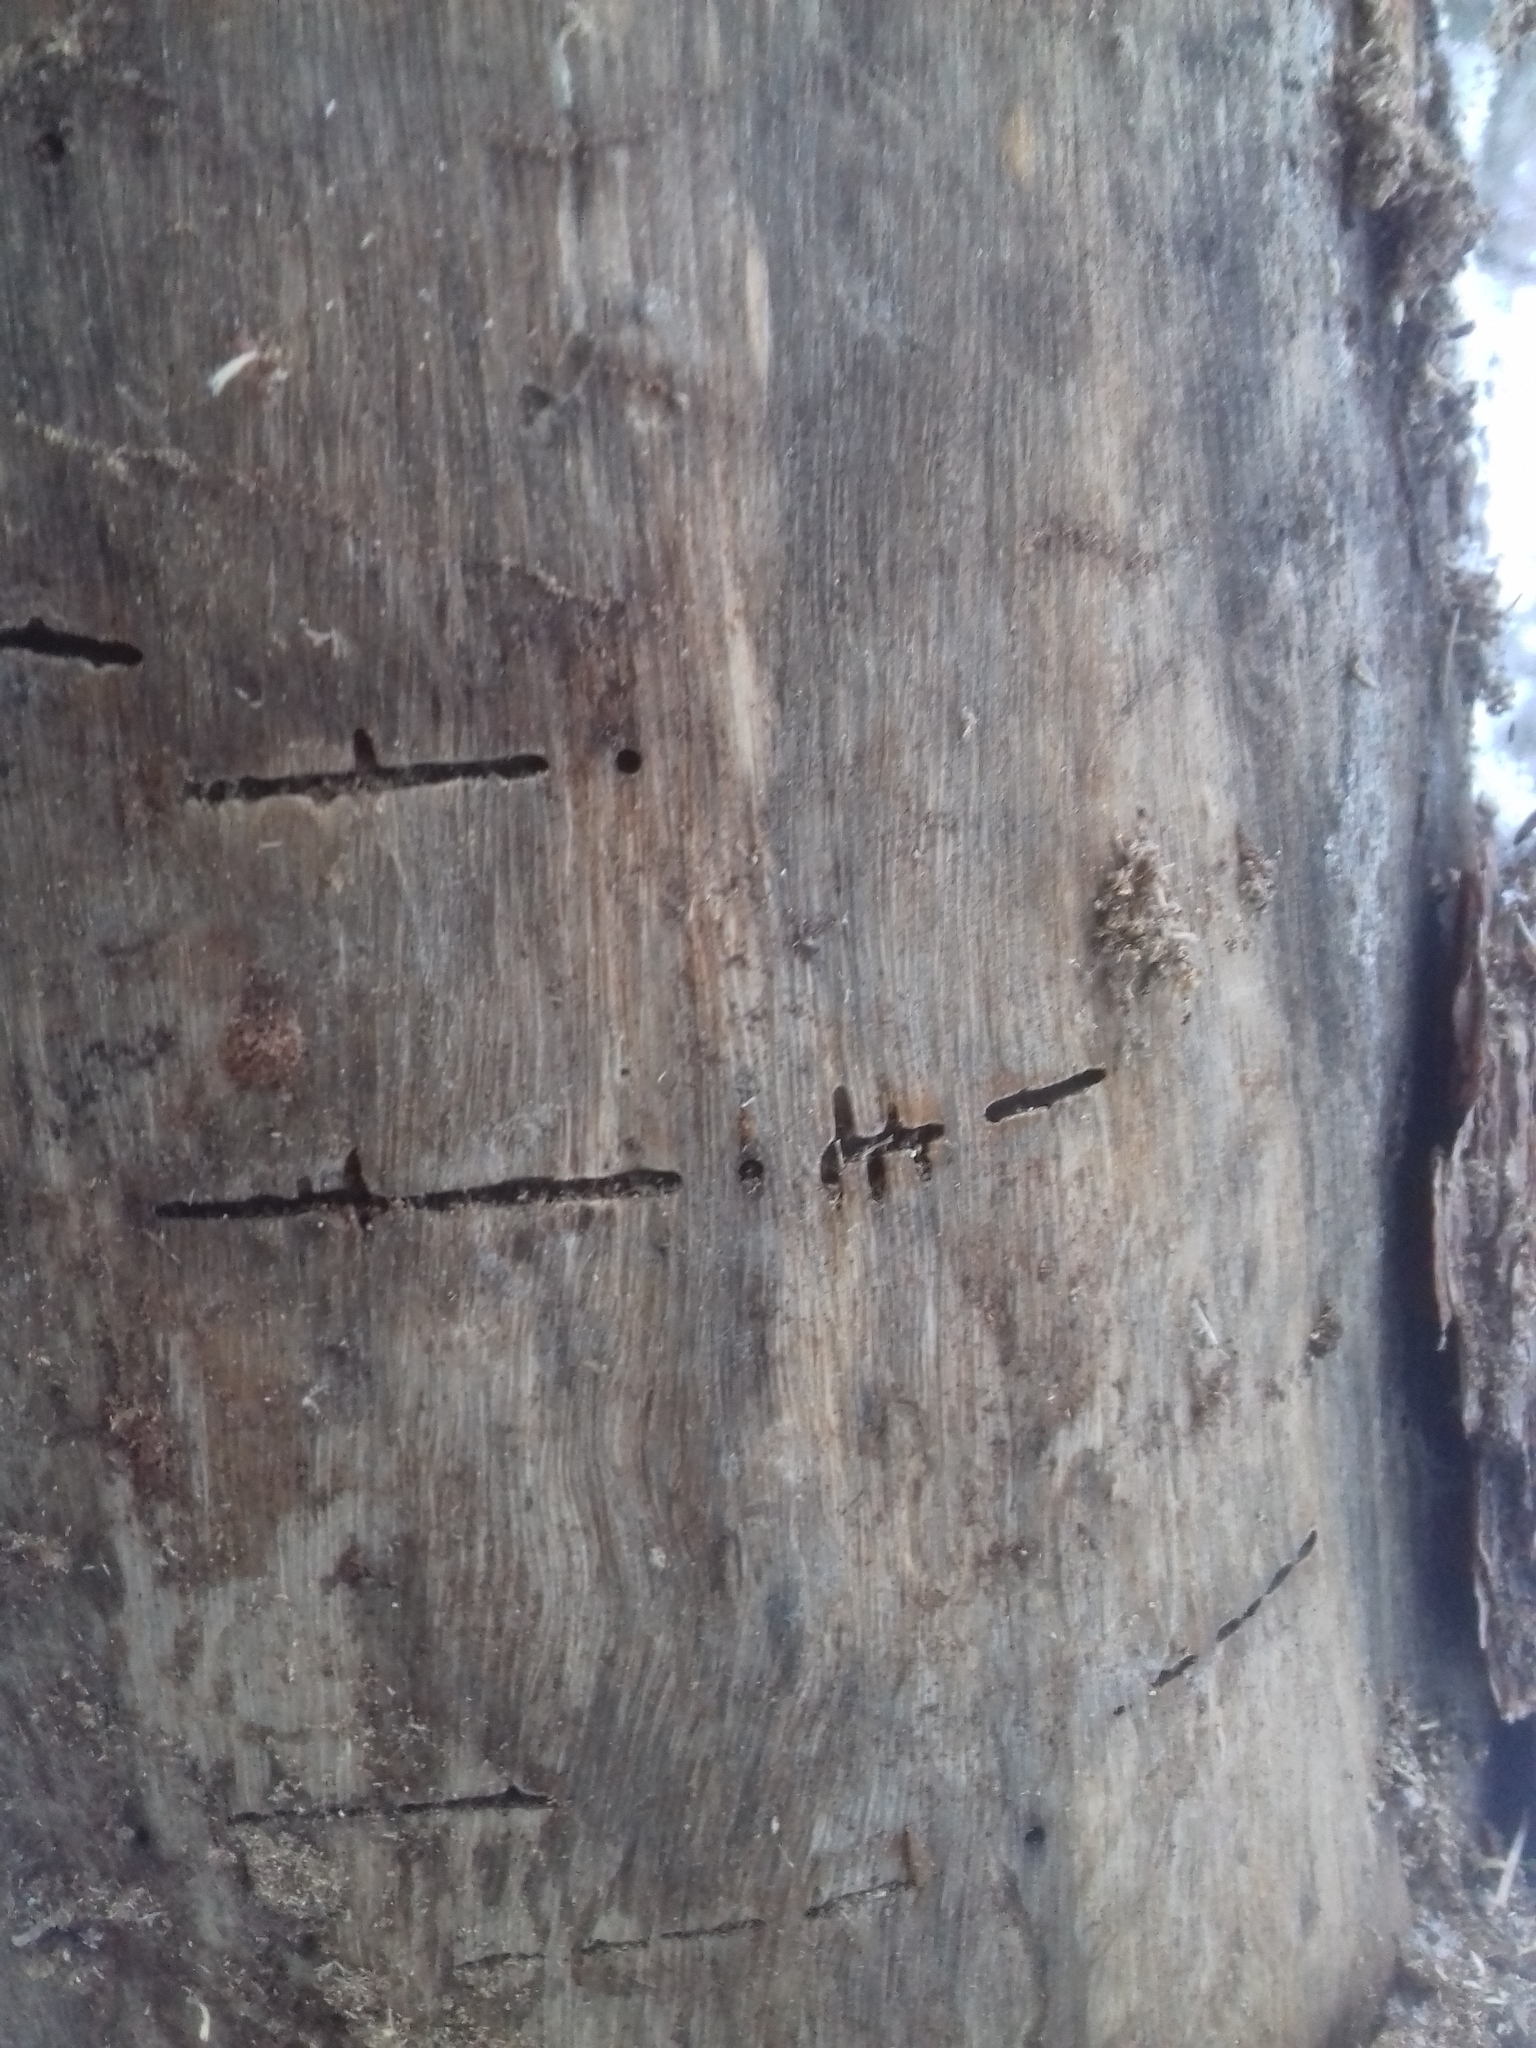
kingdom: Animalia
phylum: Arthropoda
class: Insecta
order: Coleoptera
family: Curculionidae
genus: Trypodendron
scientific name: Trypodendron lineatum
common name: Lineate bark beetle
